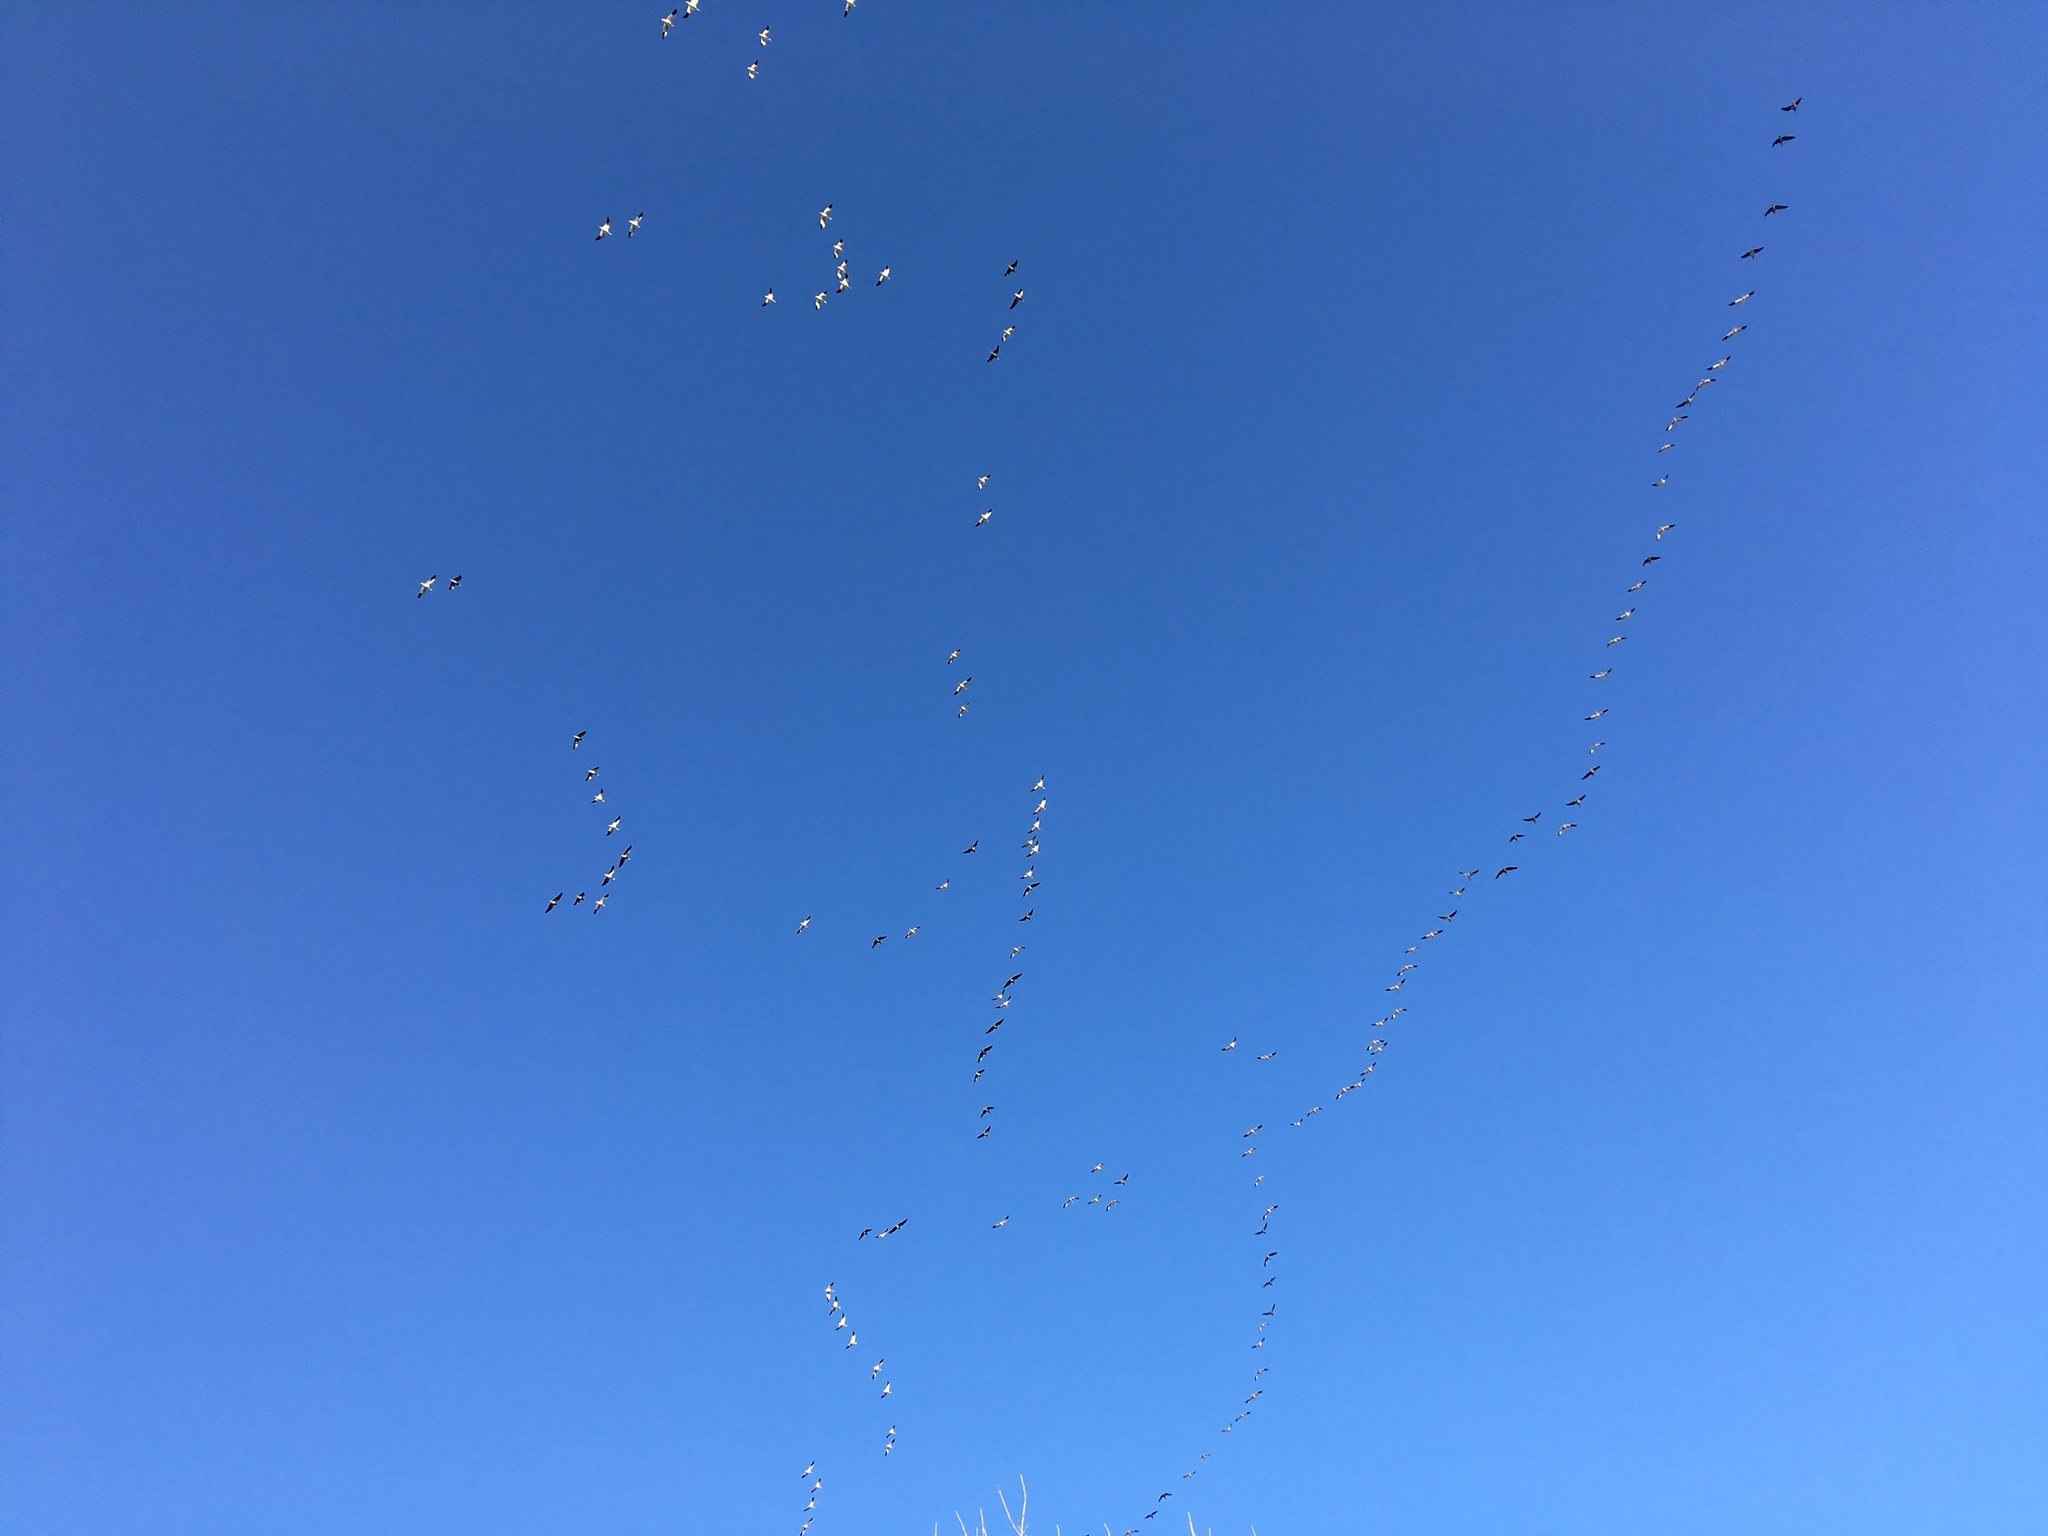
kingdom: Animalia
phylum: Chordata
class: Aves
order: Anseriformes
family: Anatidae
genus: Anser
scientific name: Anser caerulescens
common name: Snow goose
